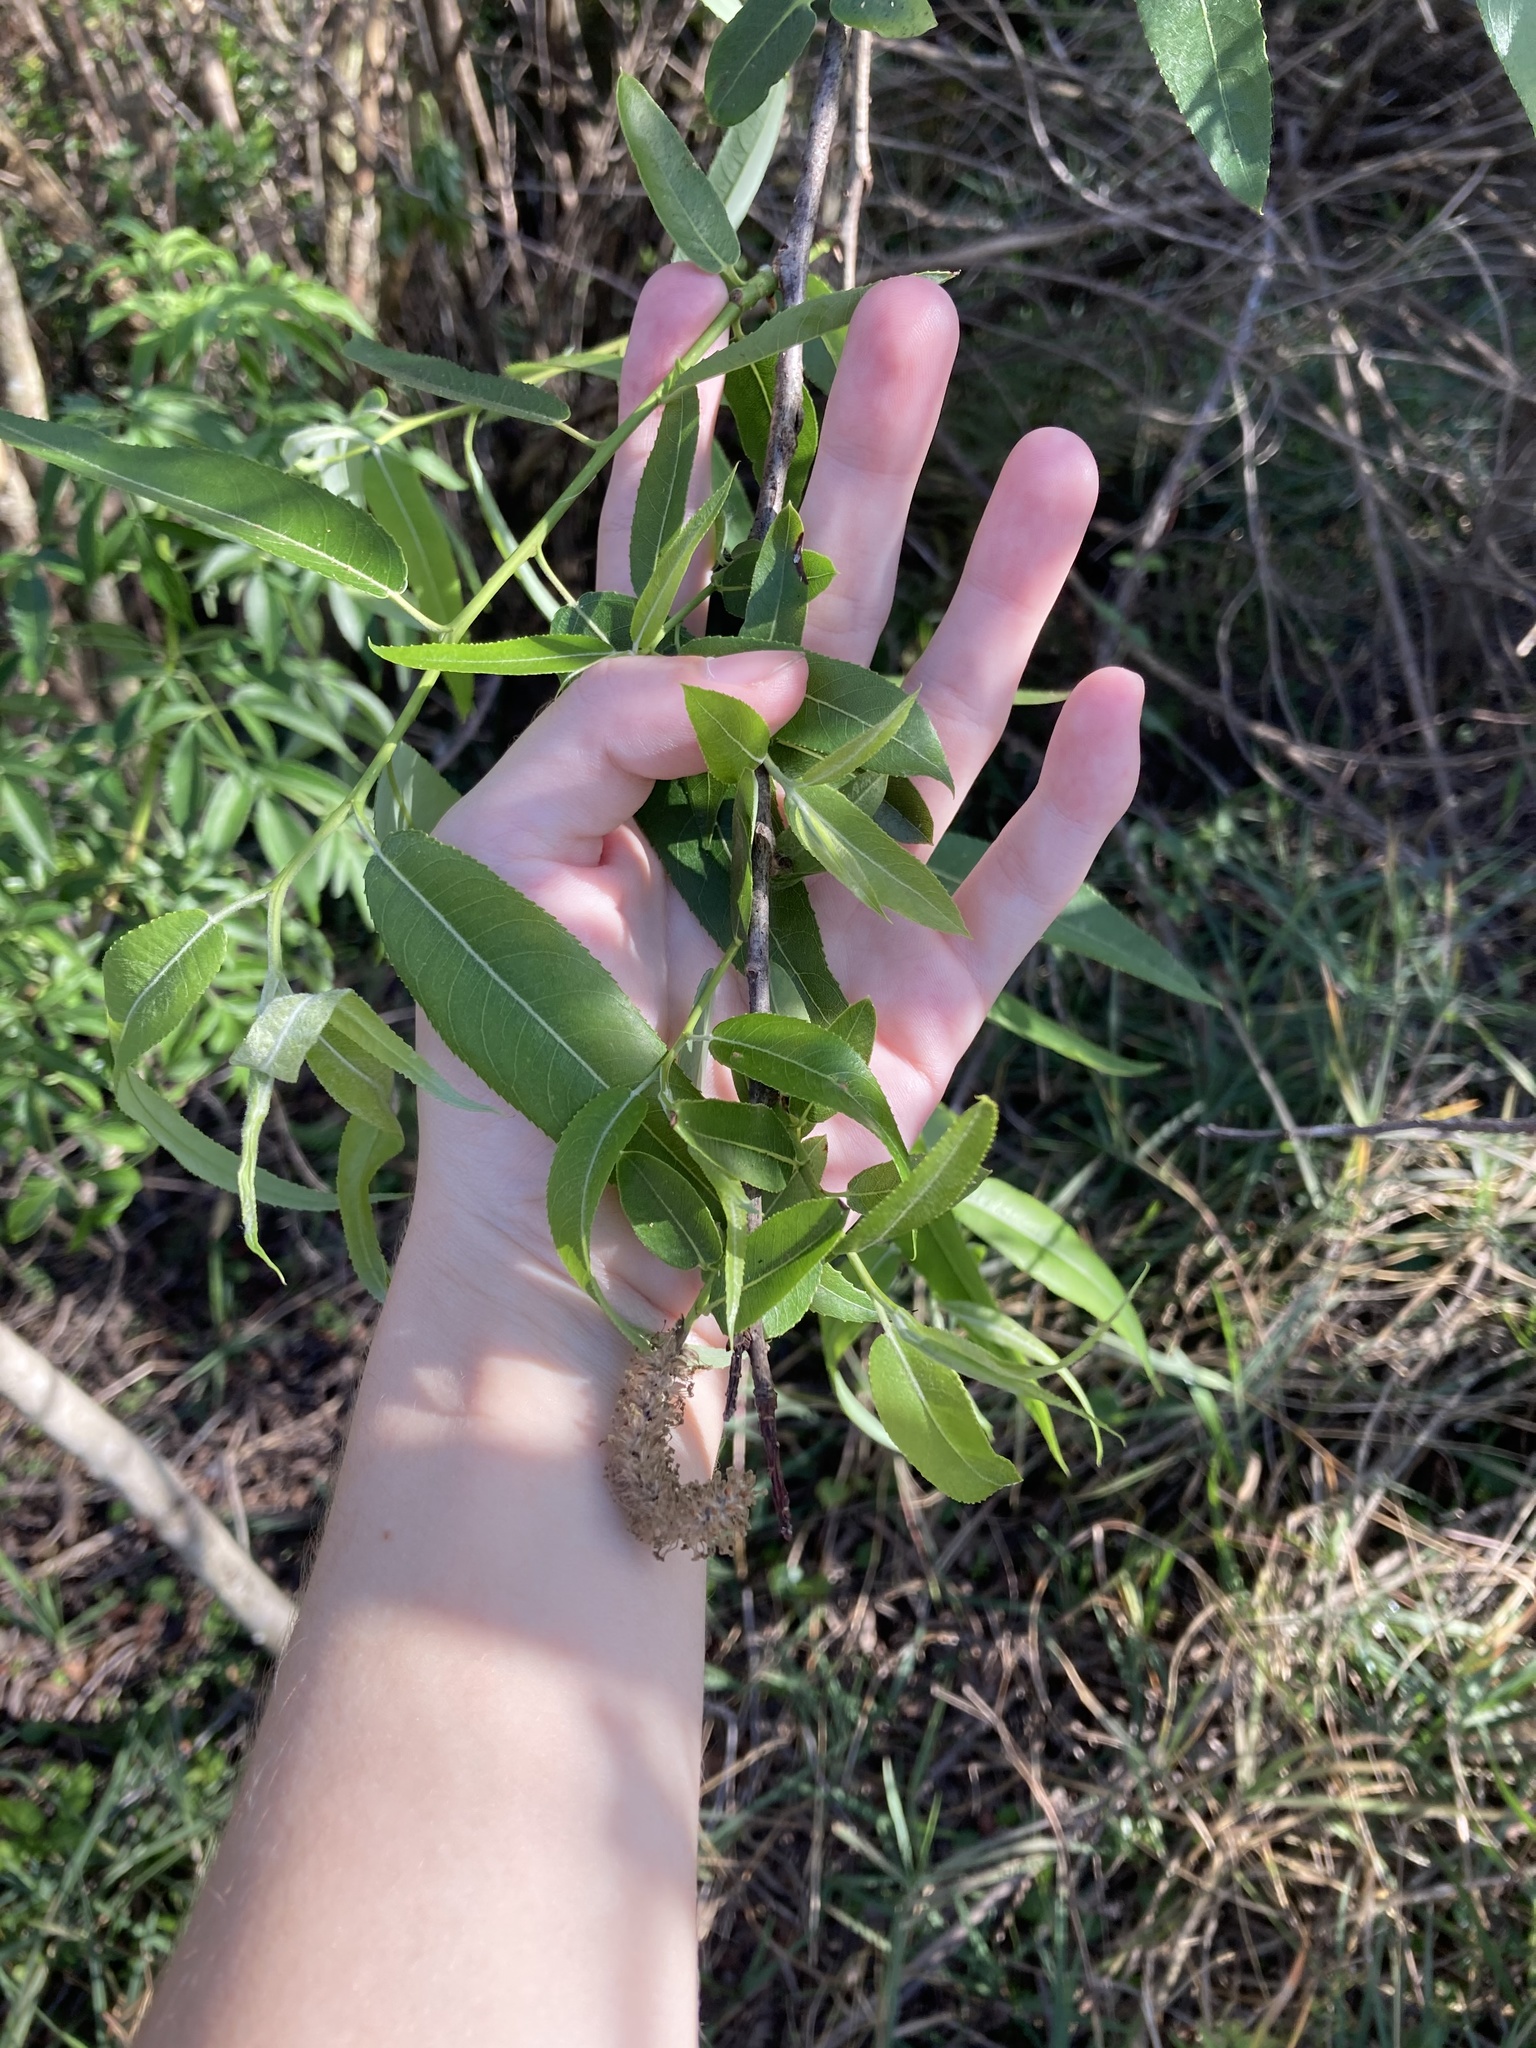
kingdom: Plantae
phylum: Tracheophyta
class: Magnoliopsida
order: Malpighiales
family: Salicaceae
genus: Salix
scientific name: Salix caroliniana
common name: Carolina willow
